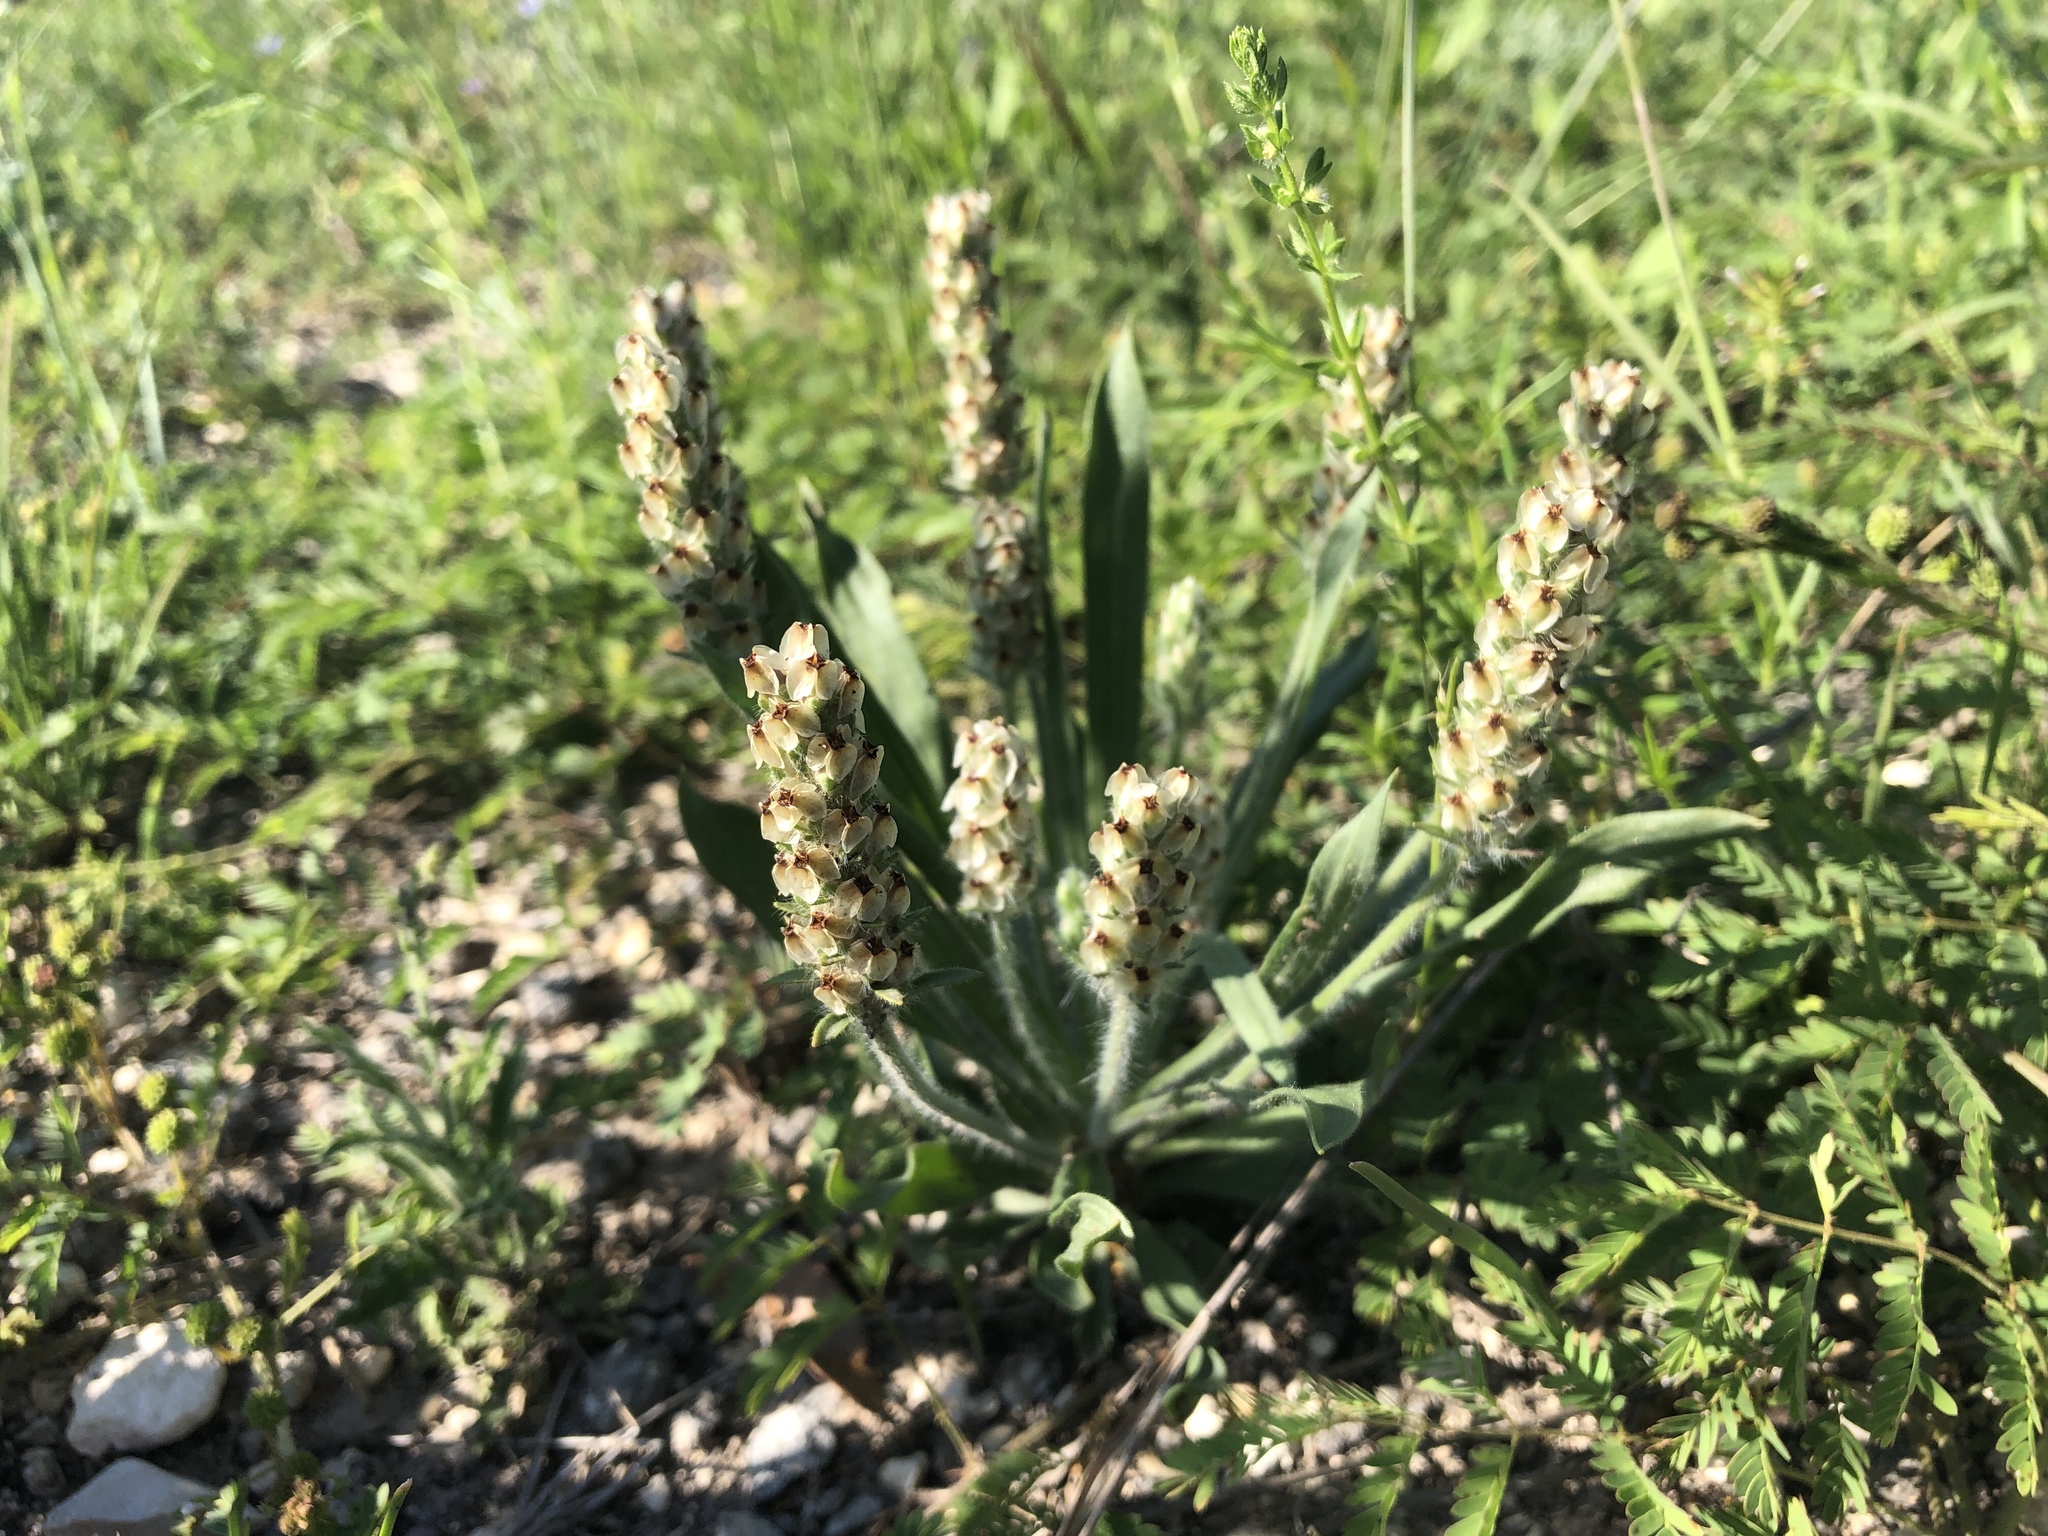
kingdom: Plantae
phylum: Tracheophyta
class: Magnoliopsida
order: Lamiales
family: Plantaginaceae
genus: Plantago
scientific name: Plantago helleri
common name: Heller's plantain
